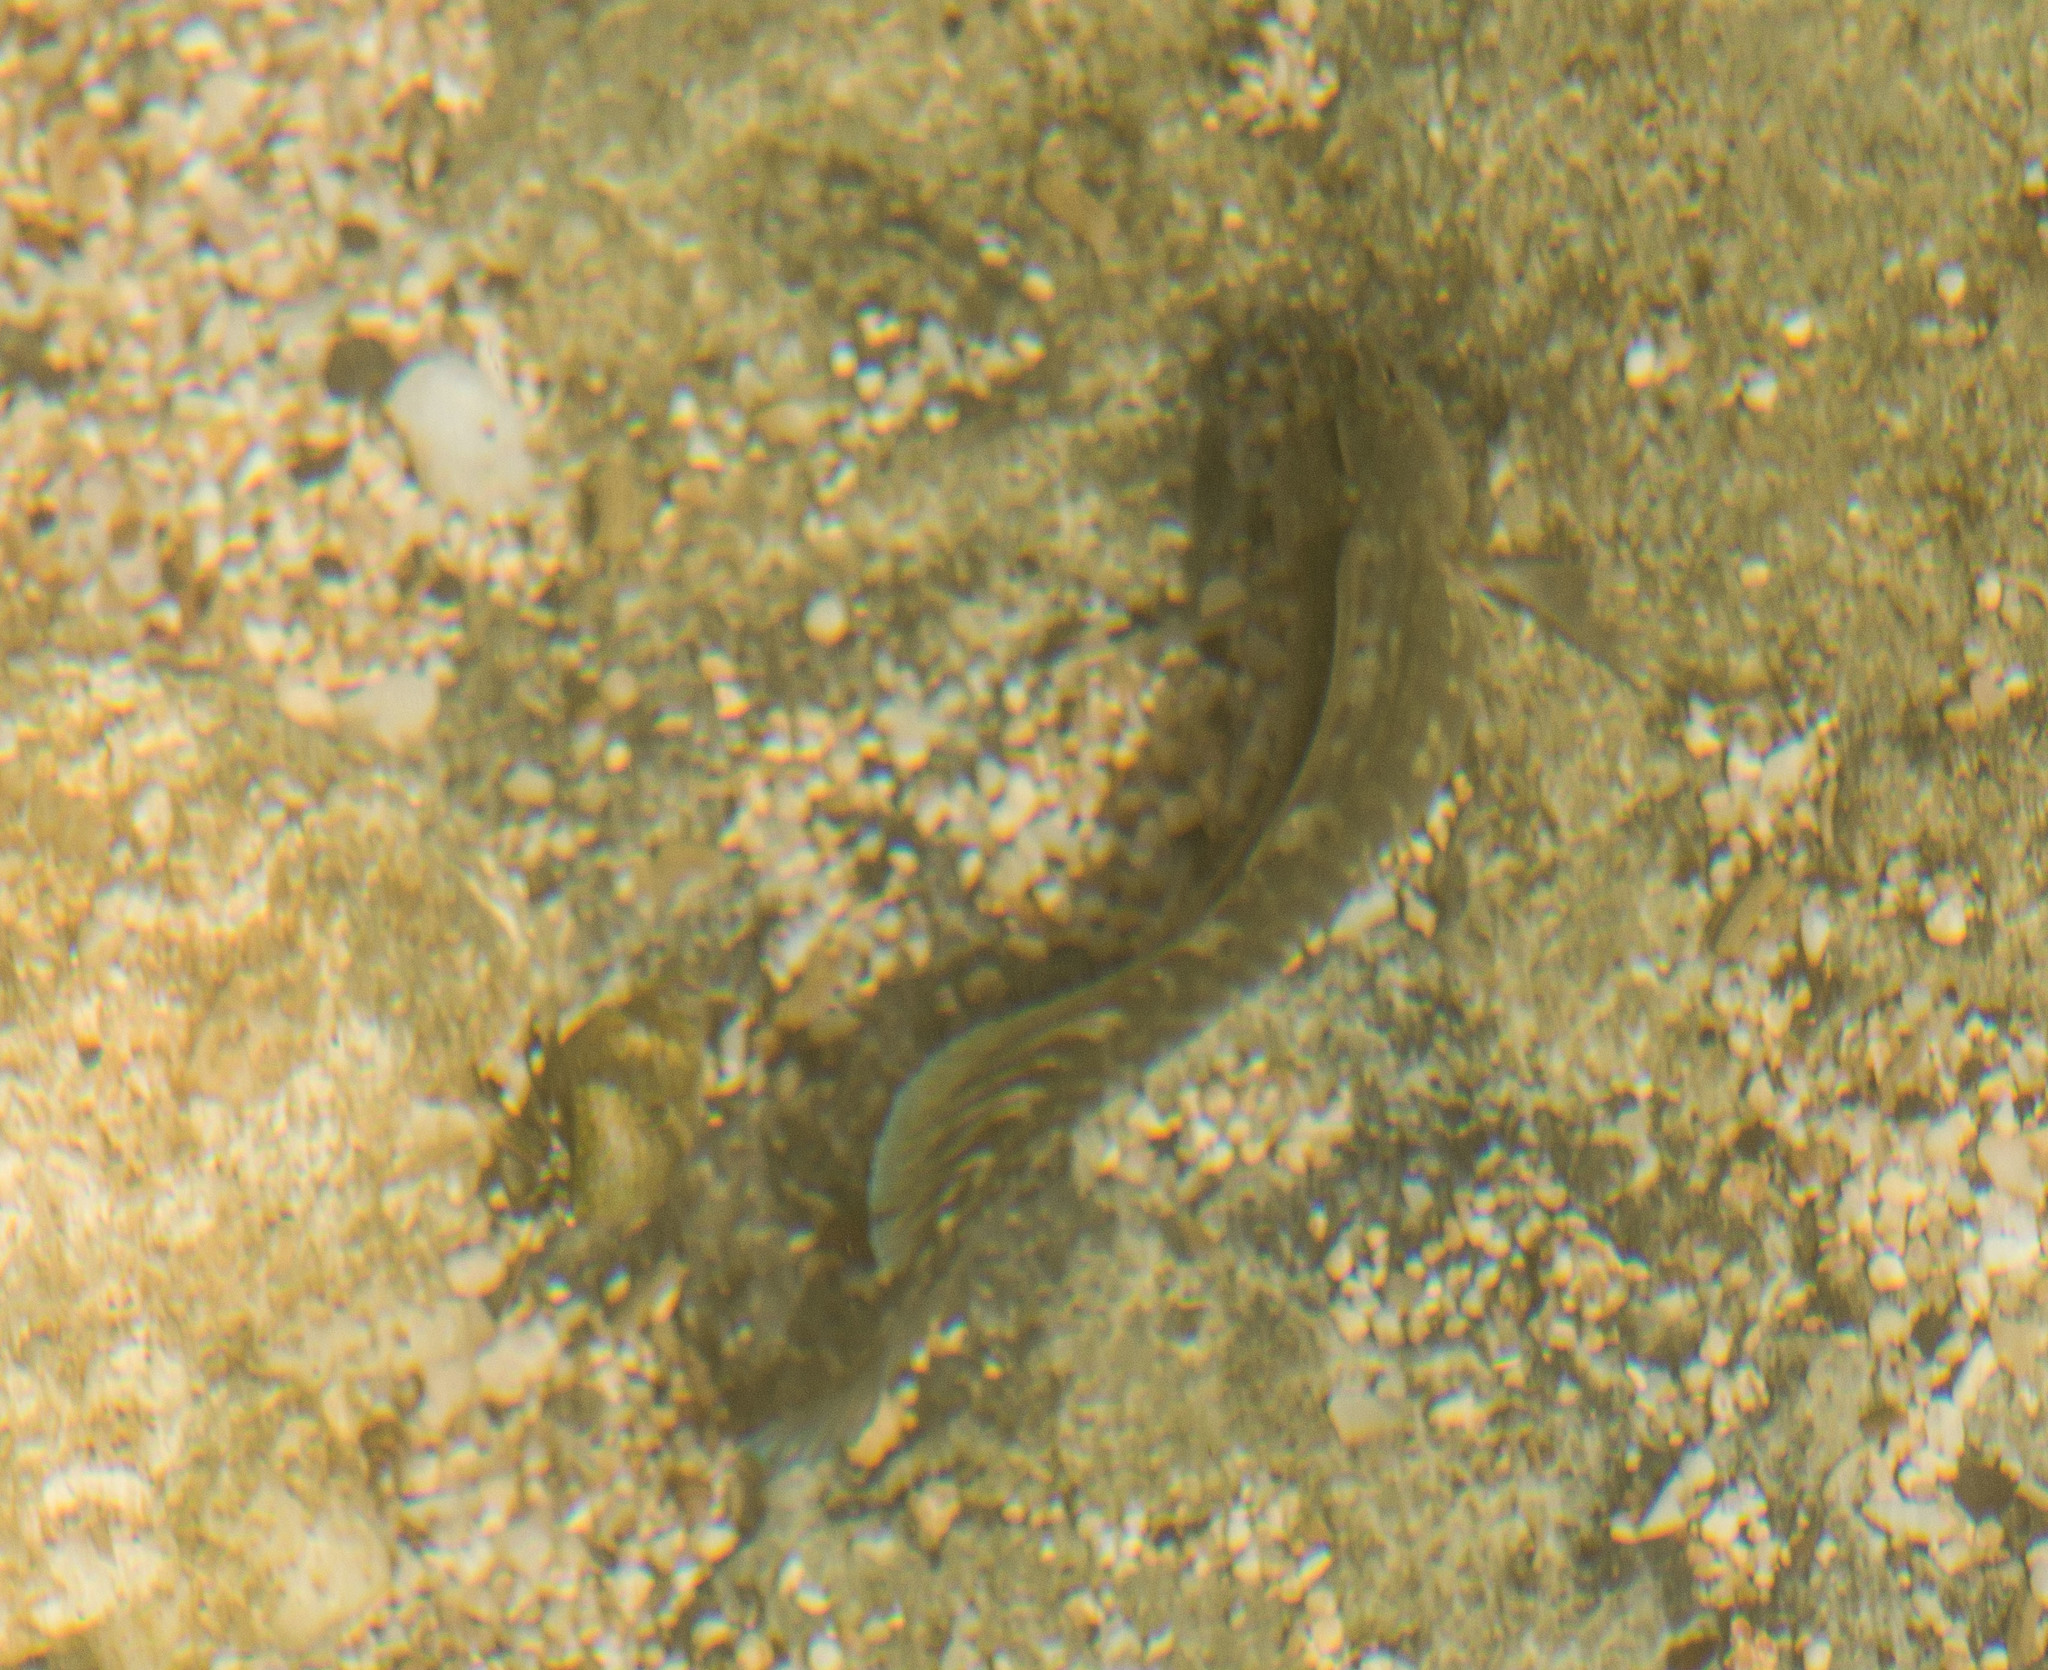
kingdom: Animalia
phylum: Chordata
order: Perciformes
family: Blenniidae
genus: Istiblennius
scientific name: Istiblennius zebra
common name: Zebra blenny
